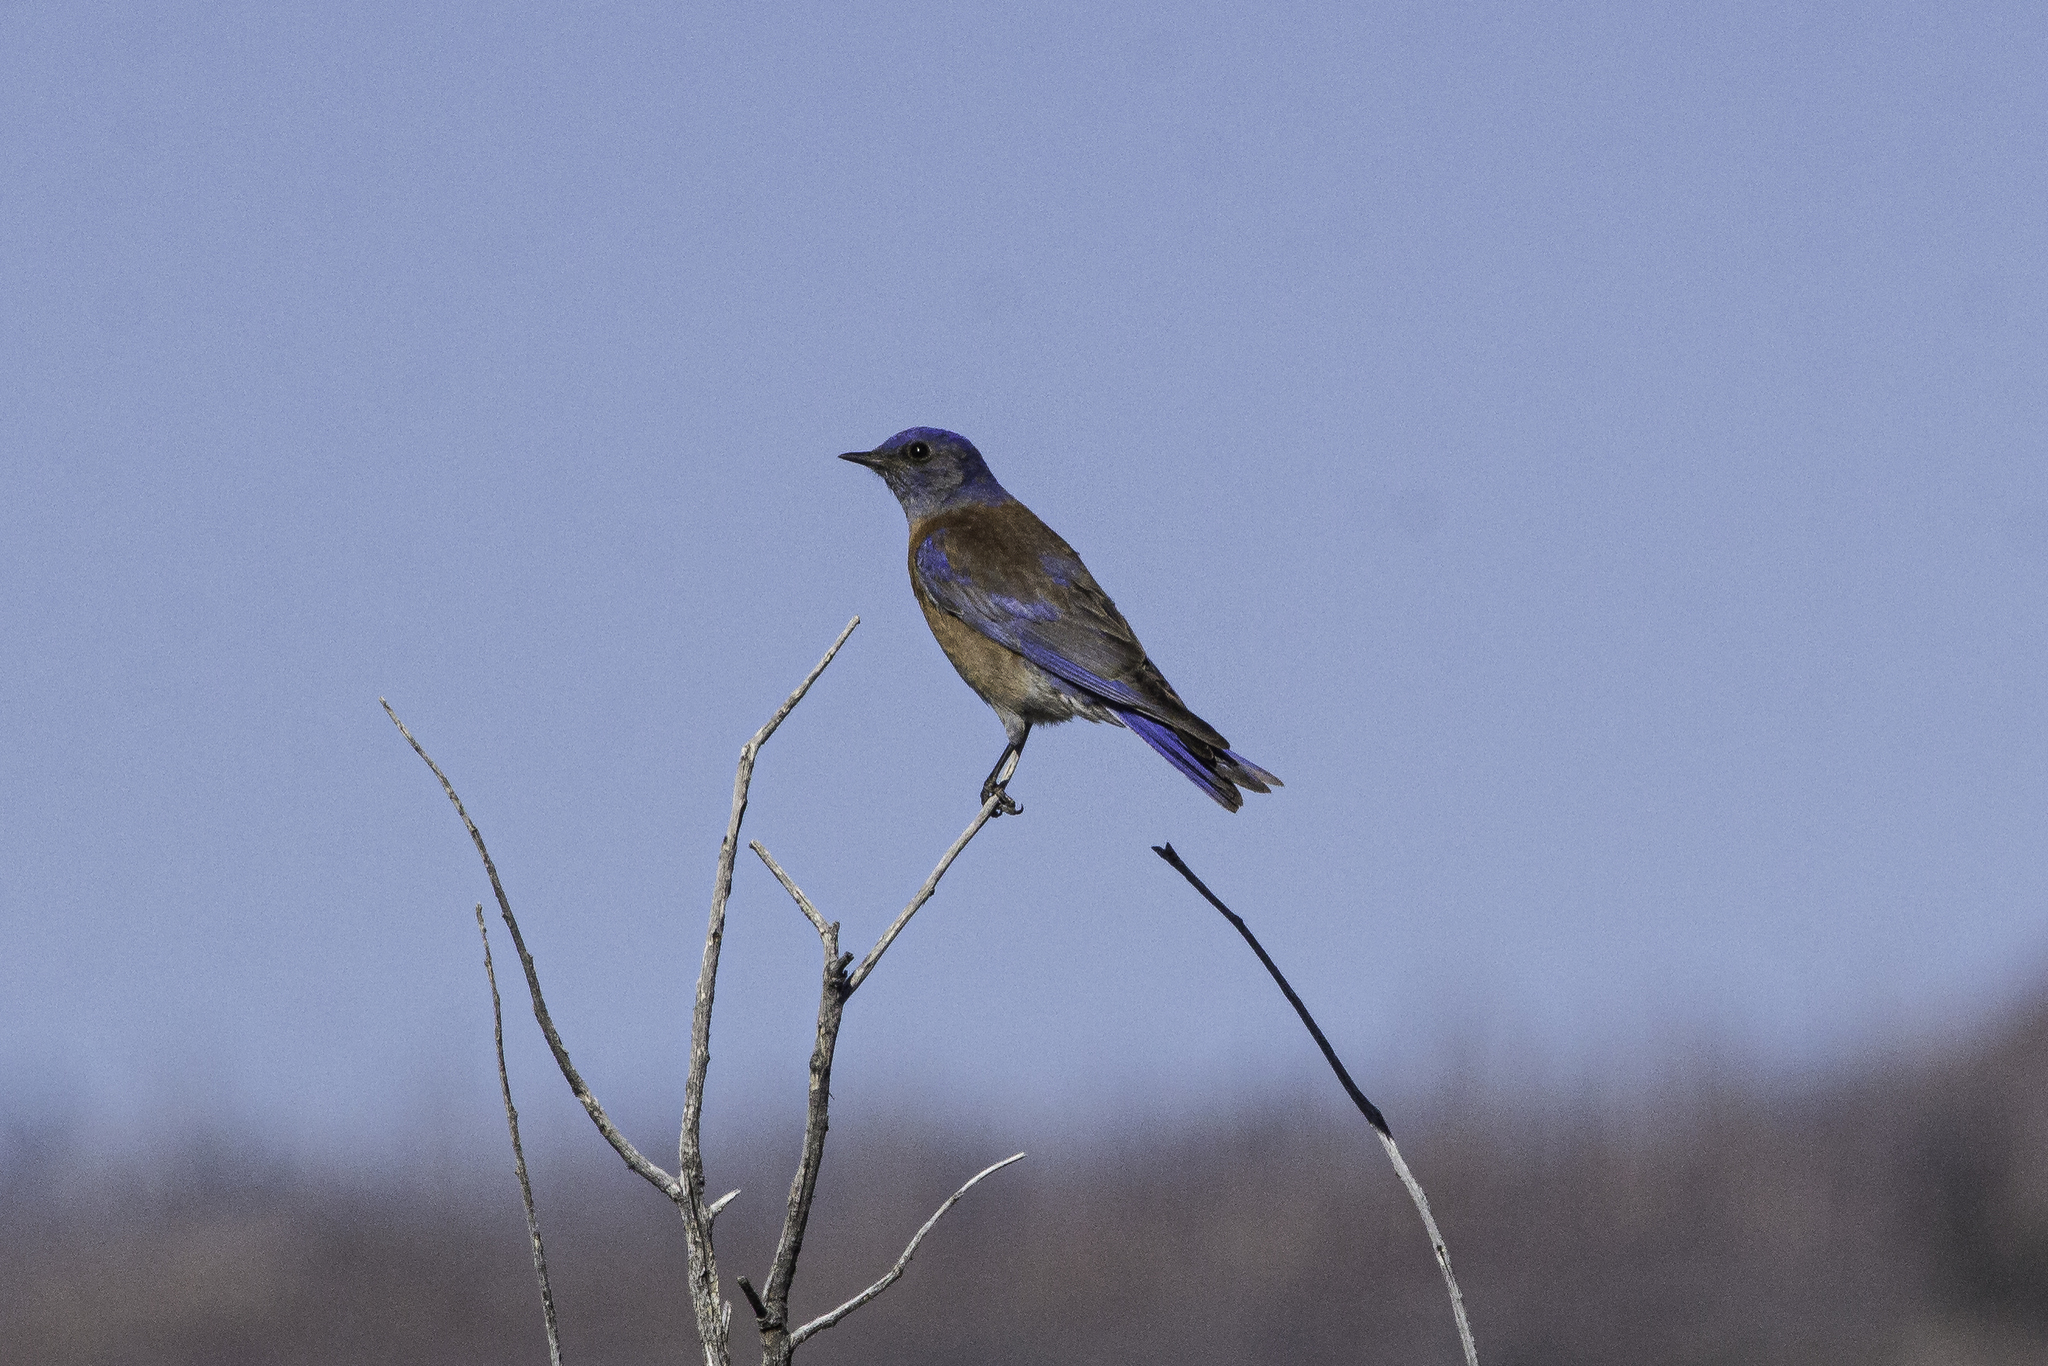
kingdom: Animalia
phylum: Chordata
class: Aves
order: Passeriformes
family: Turdidae
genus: Sialia
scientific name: Sialia mexicana
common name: Western bluebird
